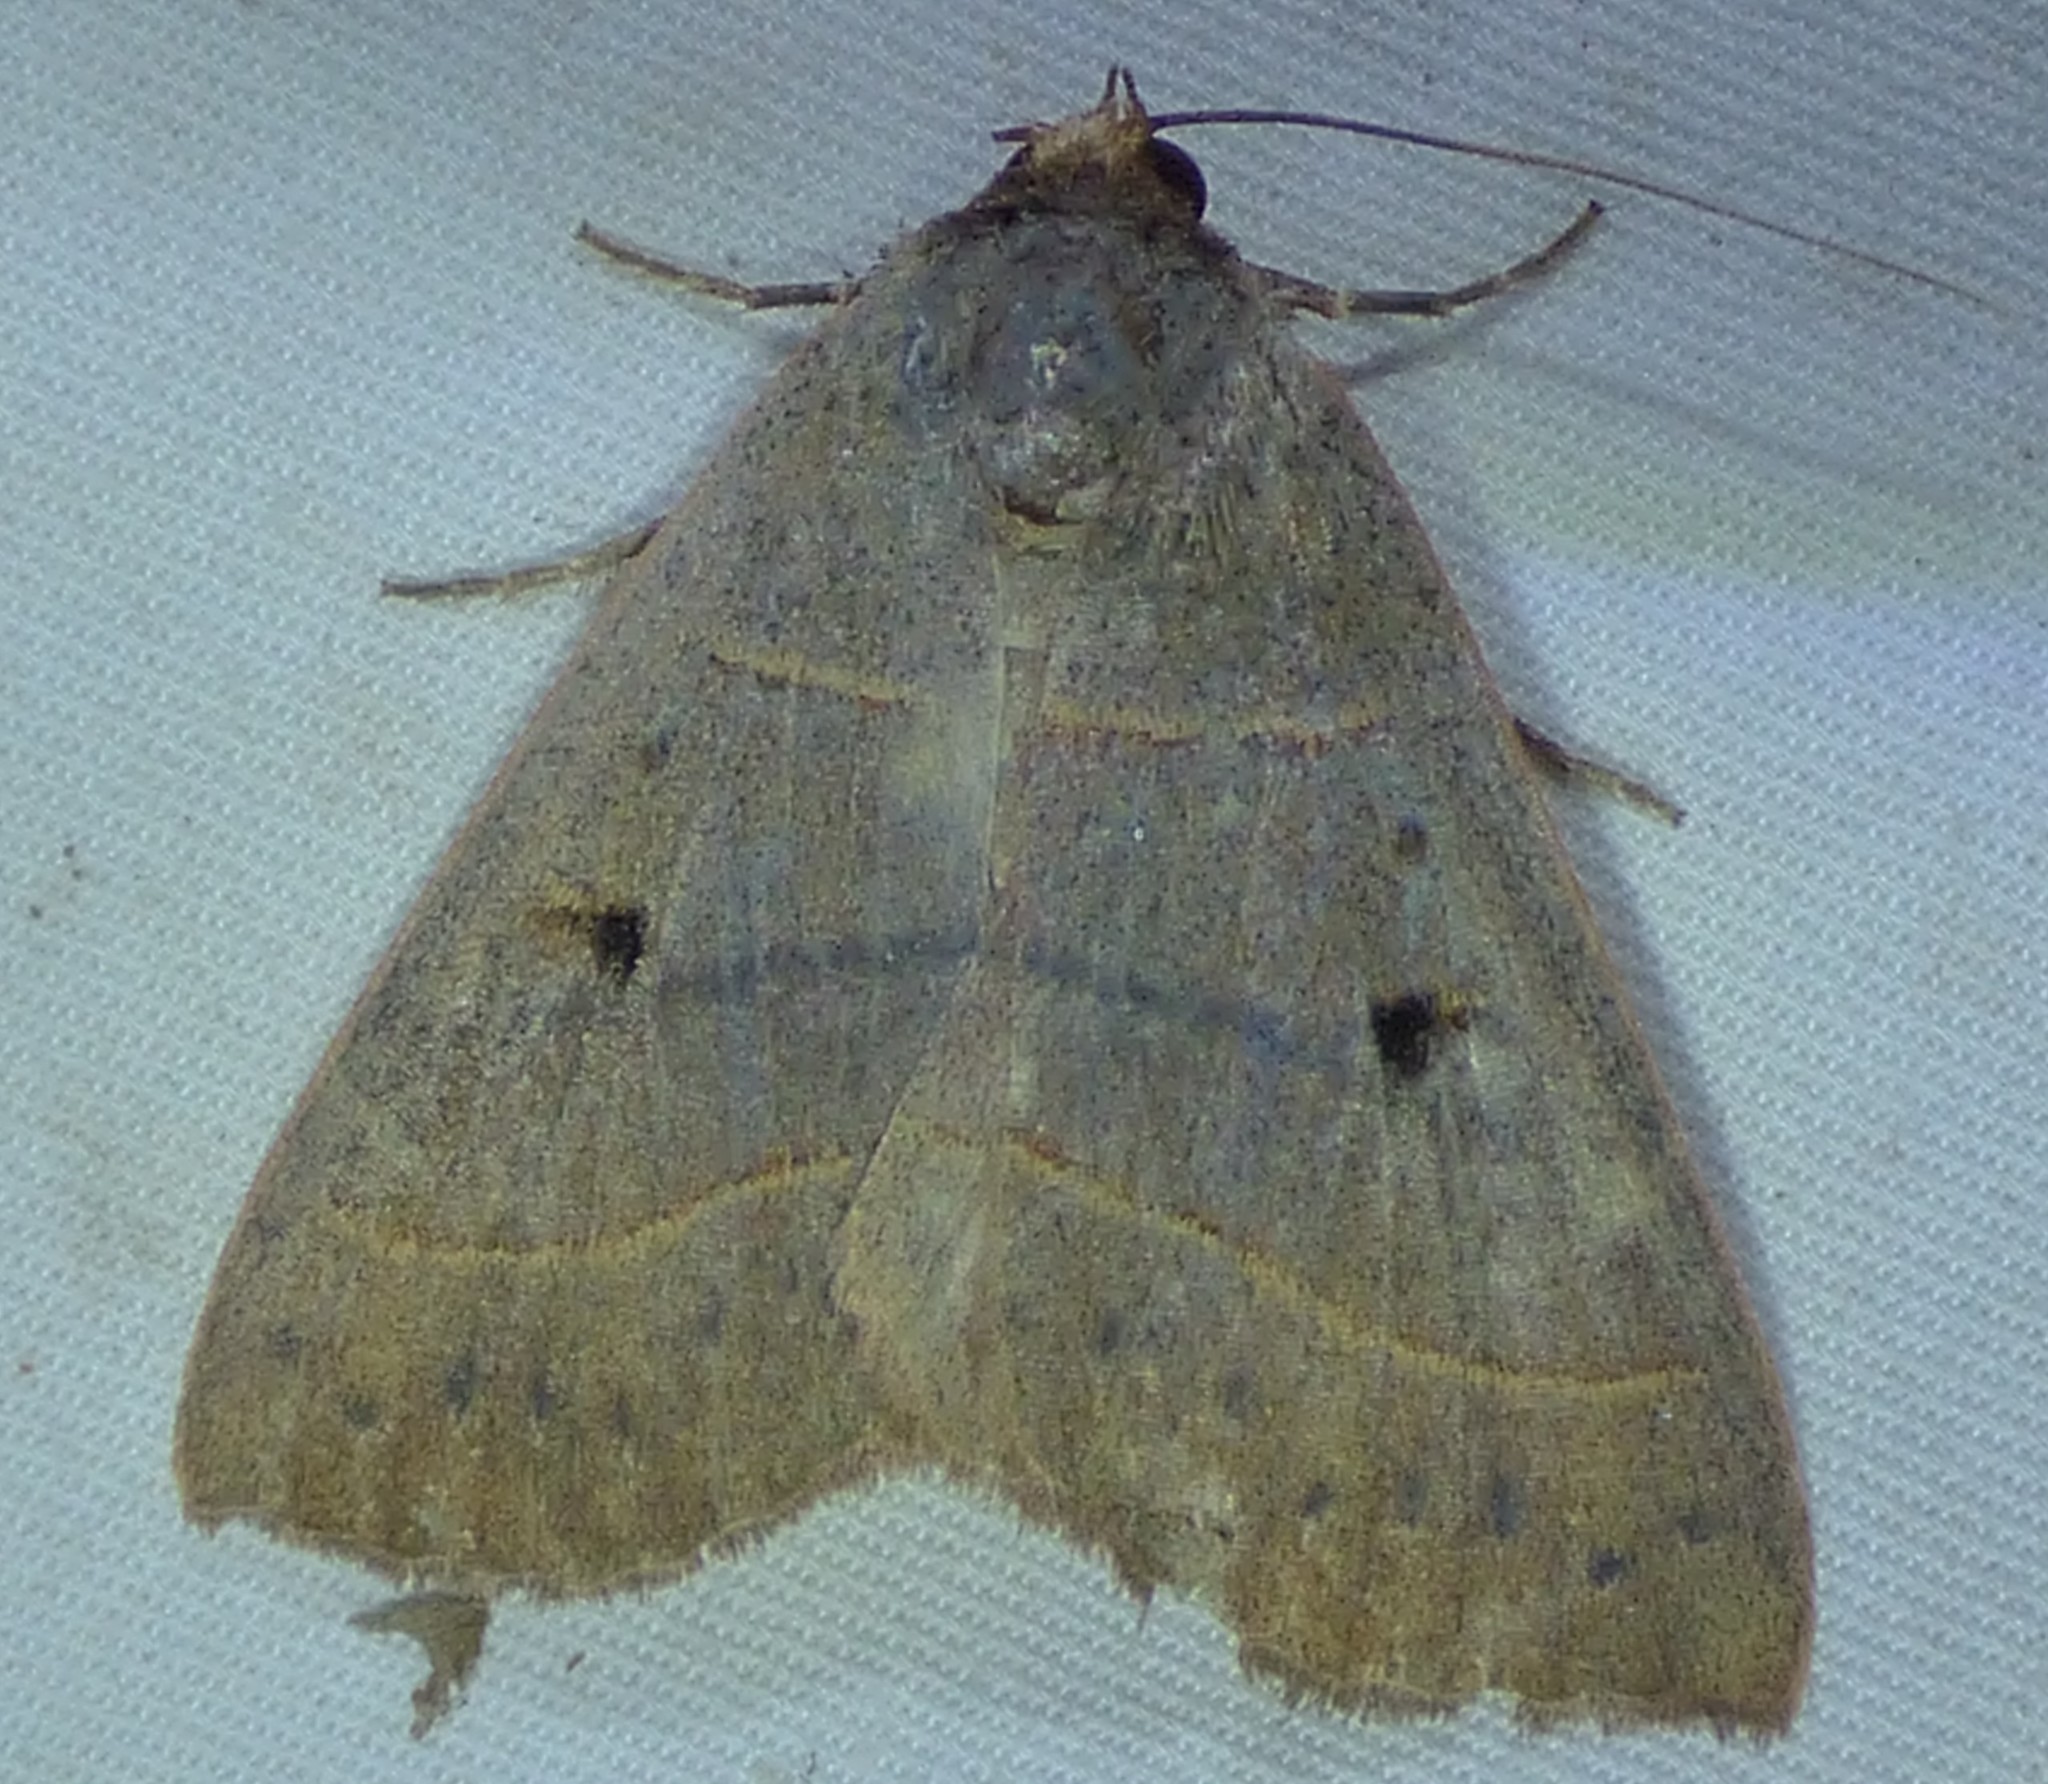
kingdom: Animalia
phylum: Arthropoda
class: Insecta
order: Lepidoptera
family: Erebidae
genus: Panopoda
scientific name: Panopoda rufimargo
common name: Red-lined panopoda moth
